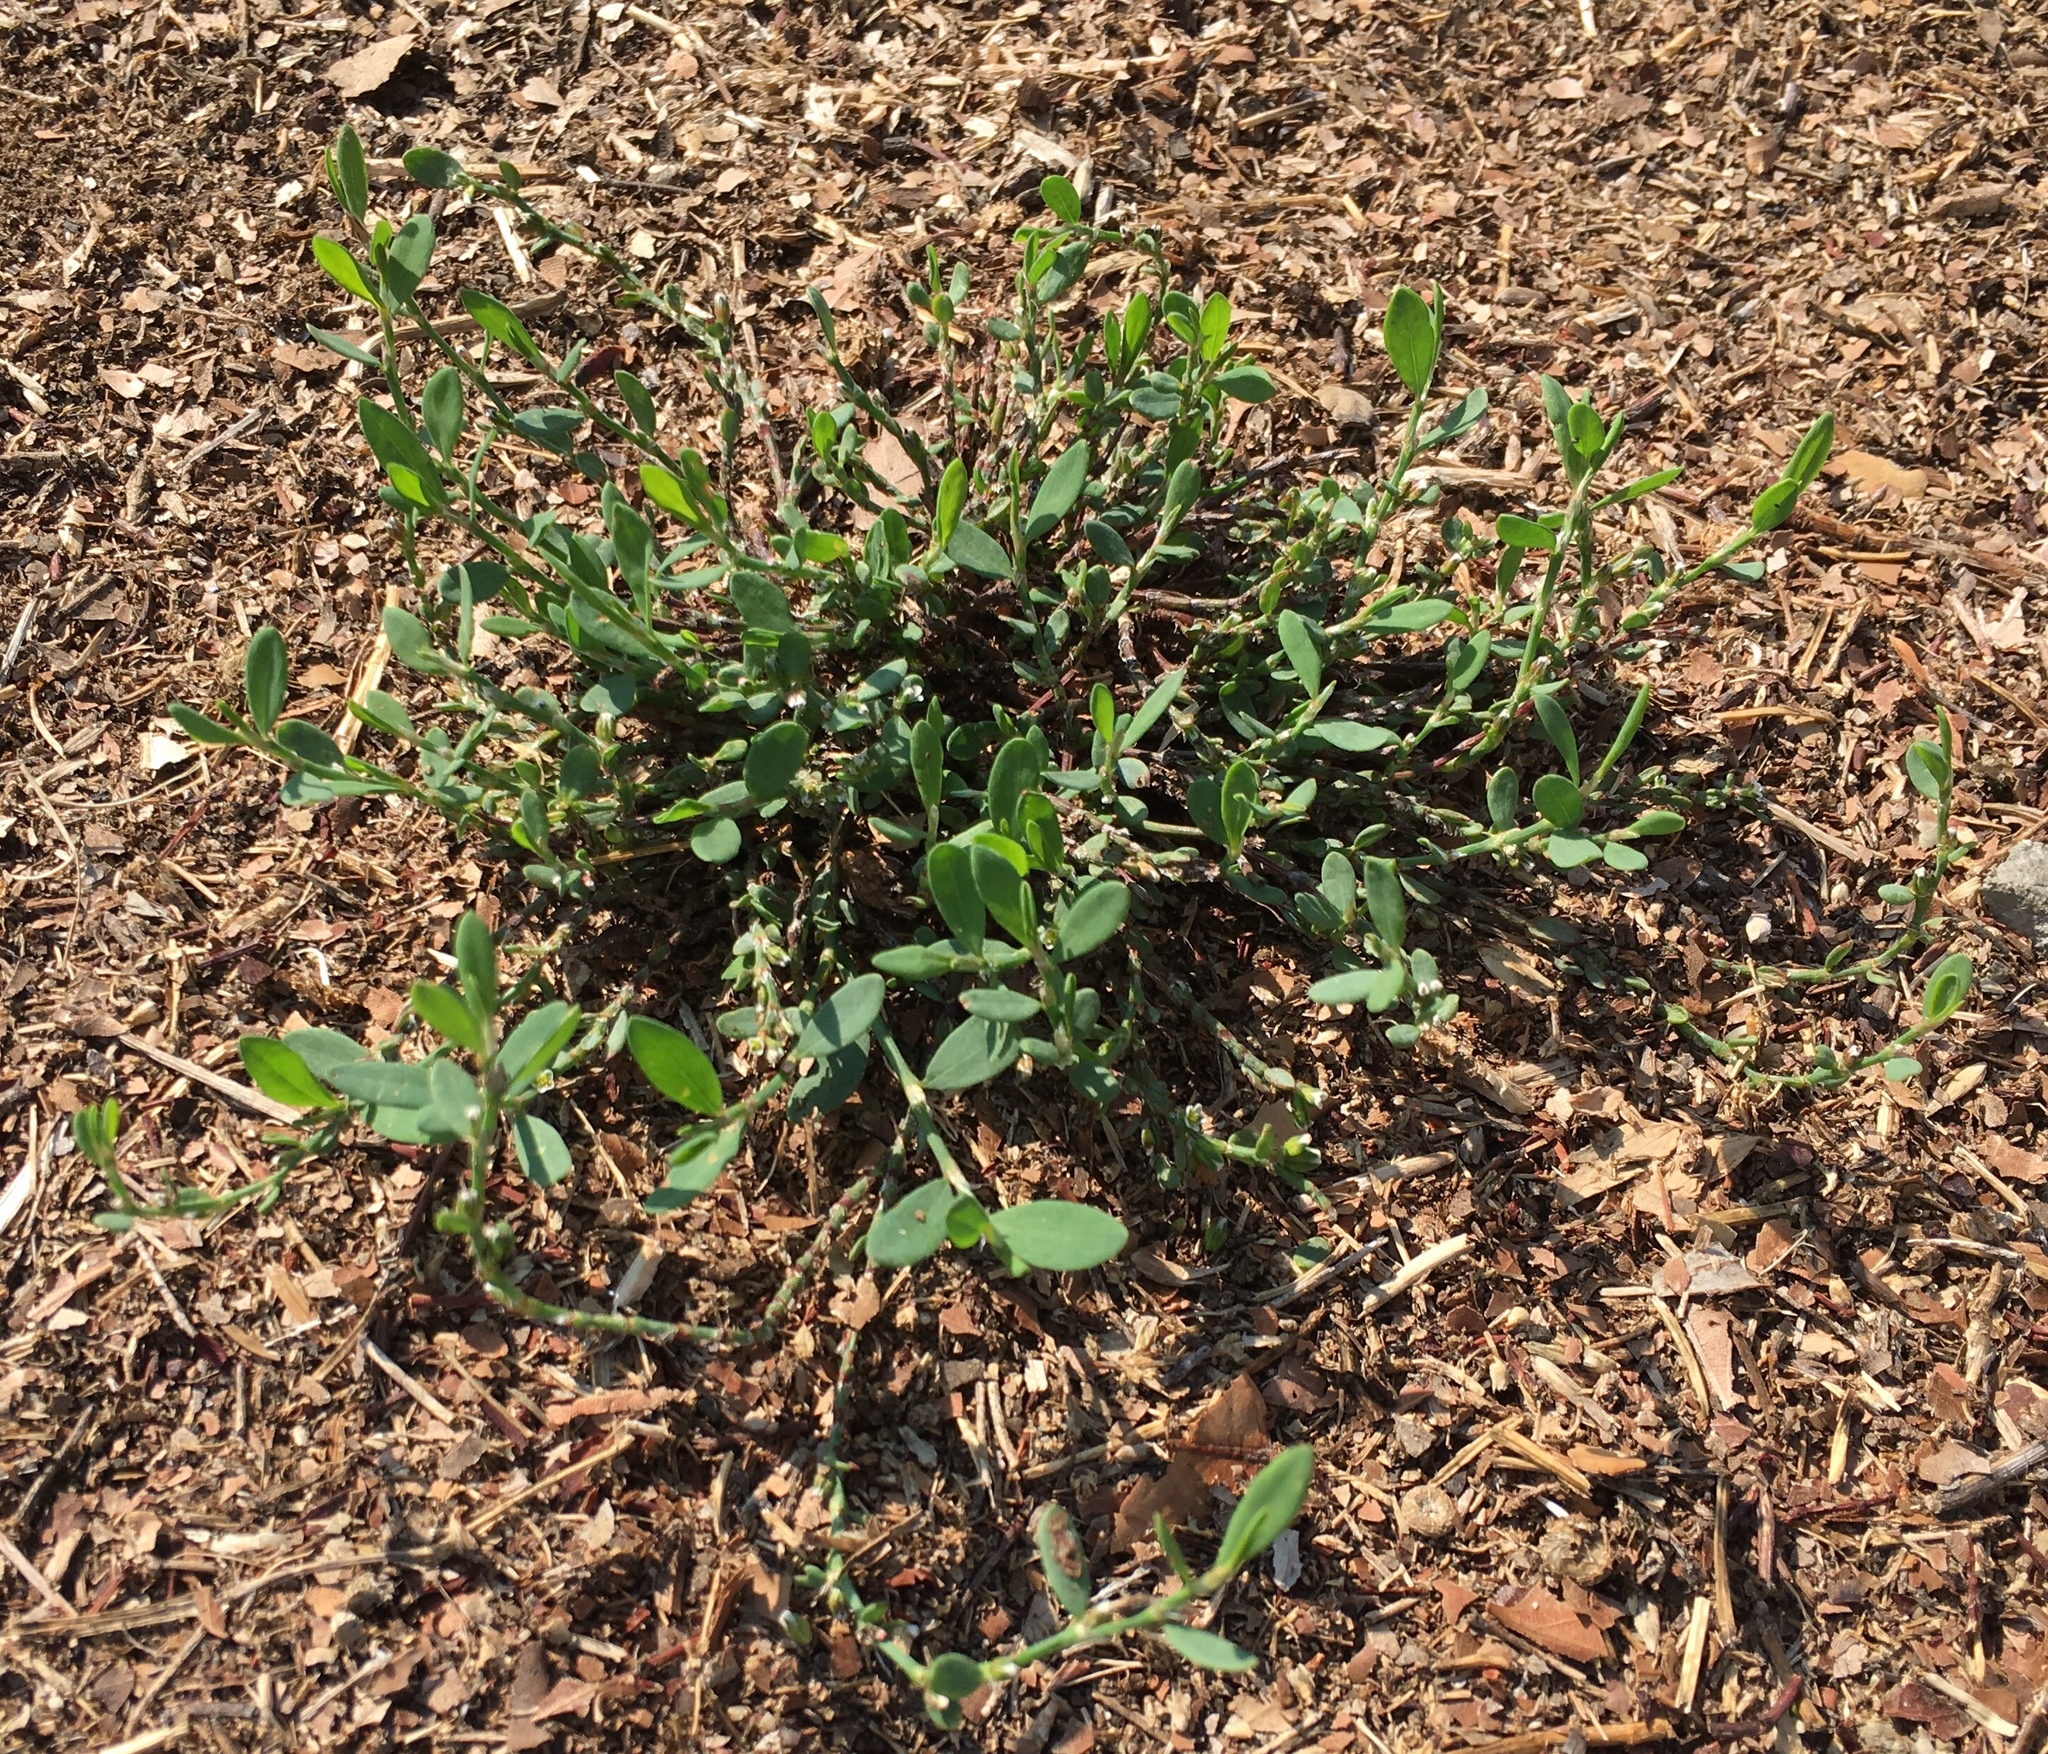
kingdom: Plantae
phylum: Tracheophyta
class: Magnoliopsida
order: Caryophyllales
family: Polygonaceae
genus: Polygonum
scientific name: Polygonum aviculare
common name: Prostrate knotweed
